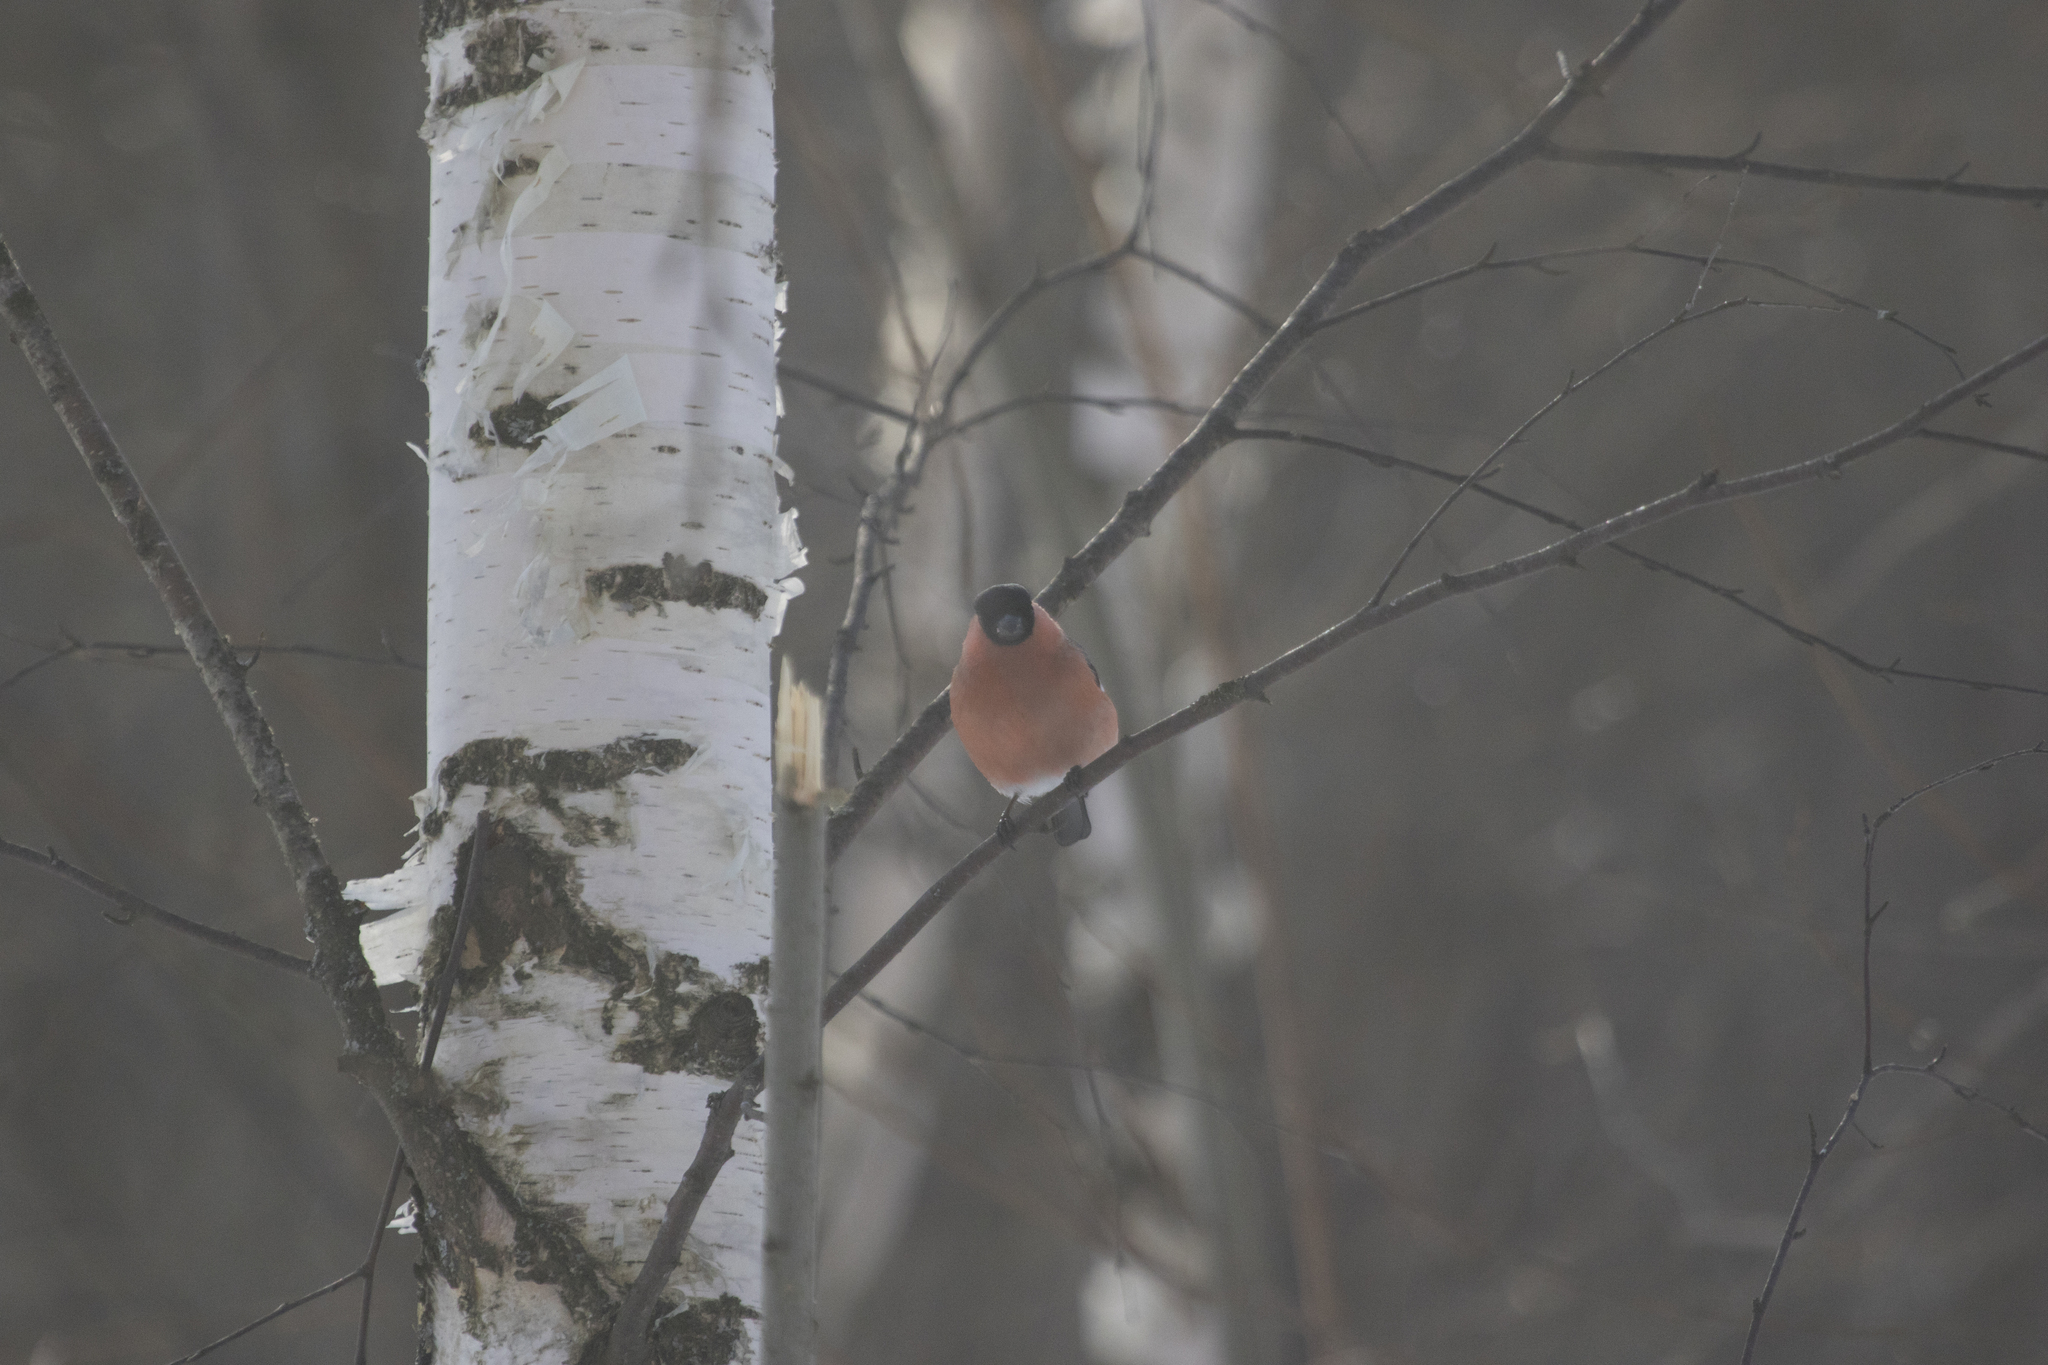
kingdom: Animalia
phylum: Chordata
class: Aves
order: Passeriformes
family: Fringillidae
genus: Pyrrhula
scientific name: Pyrrhula pyrrhula
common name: Eurasian bullfinch
